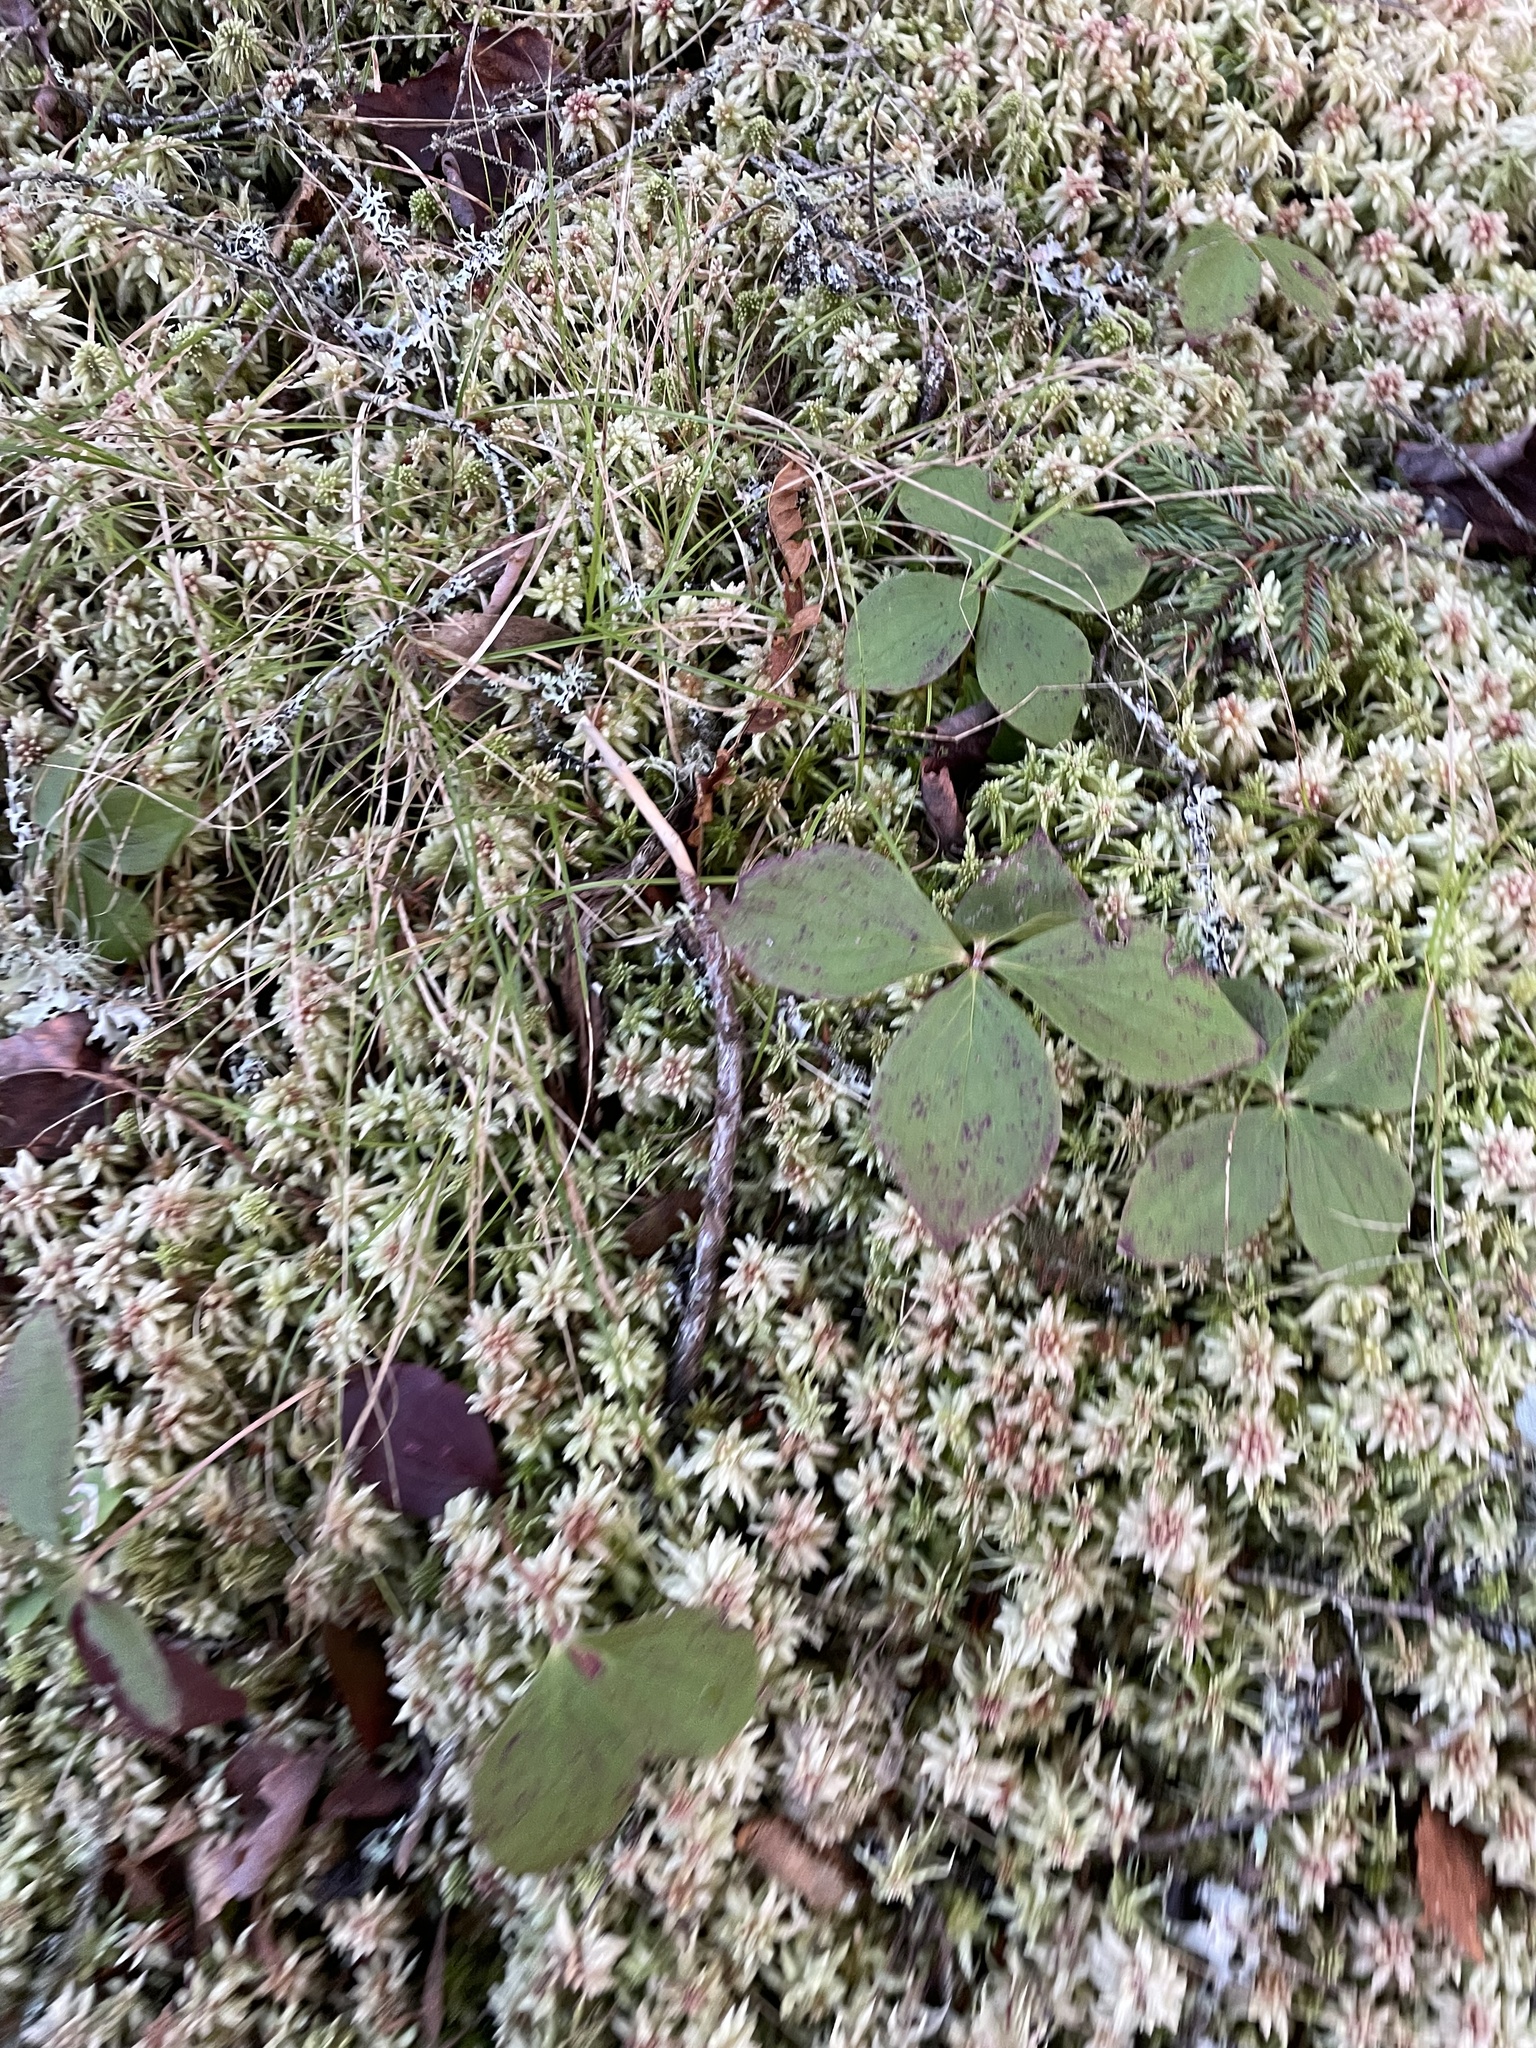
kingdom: Plantae
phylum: Tracheophyta
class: Magnoliopsida
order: Cornales
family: Cornaceae
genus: Cornus
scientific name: Cornus canadensis
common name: Creeping dogwood
